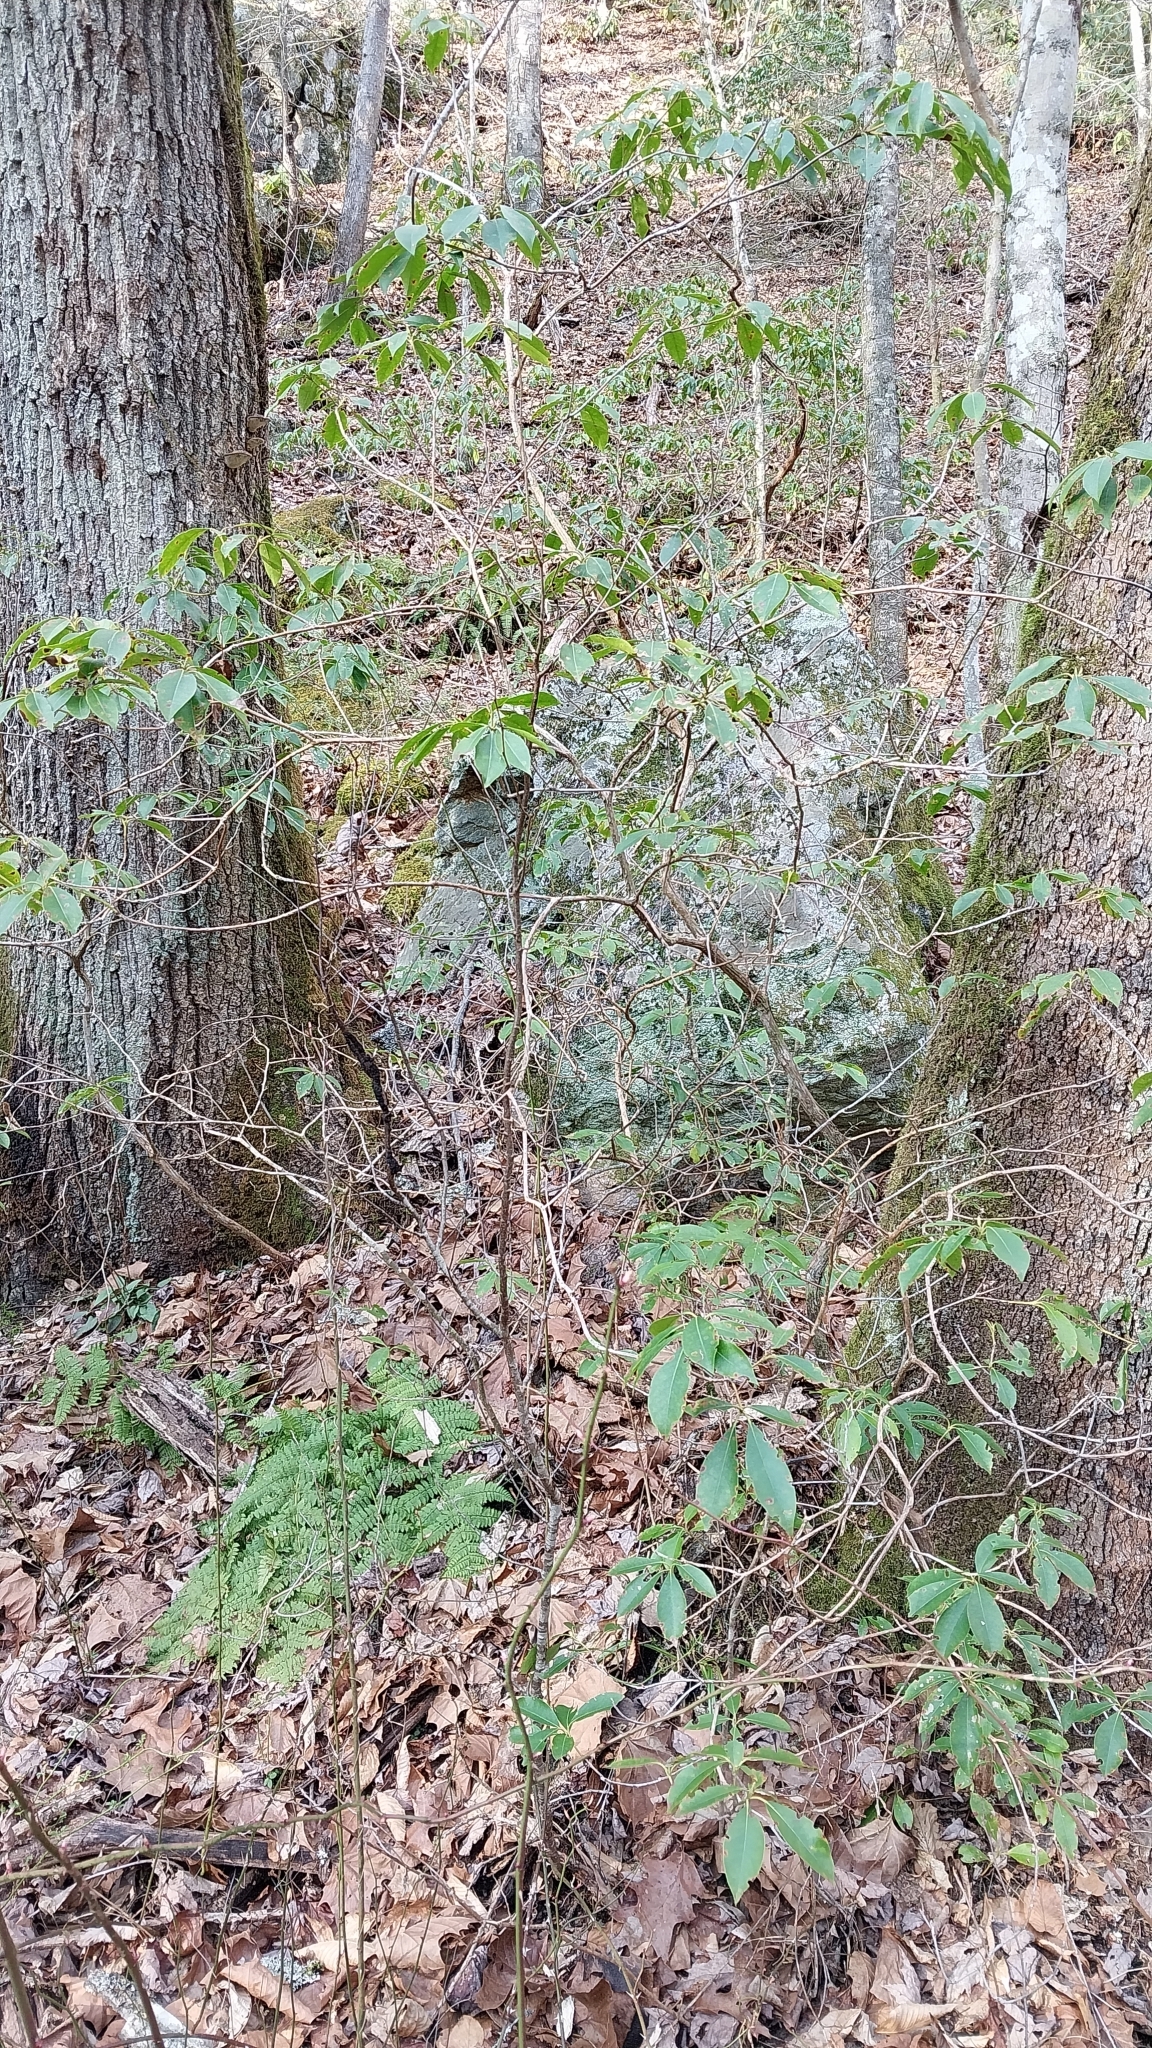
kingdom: Plantae
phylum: Tracheophyta
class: Magnoliopsida
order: Ericales
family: Ericaceae
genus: Kalmia
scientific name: Kalmia latifolia
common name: Mountain-laurel
